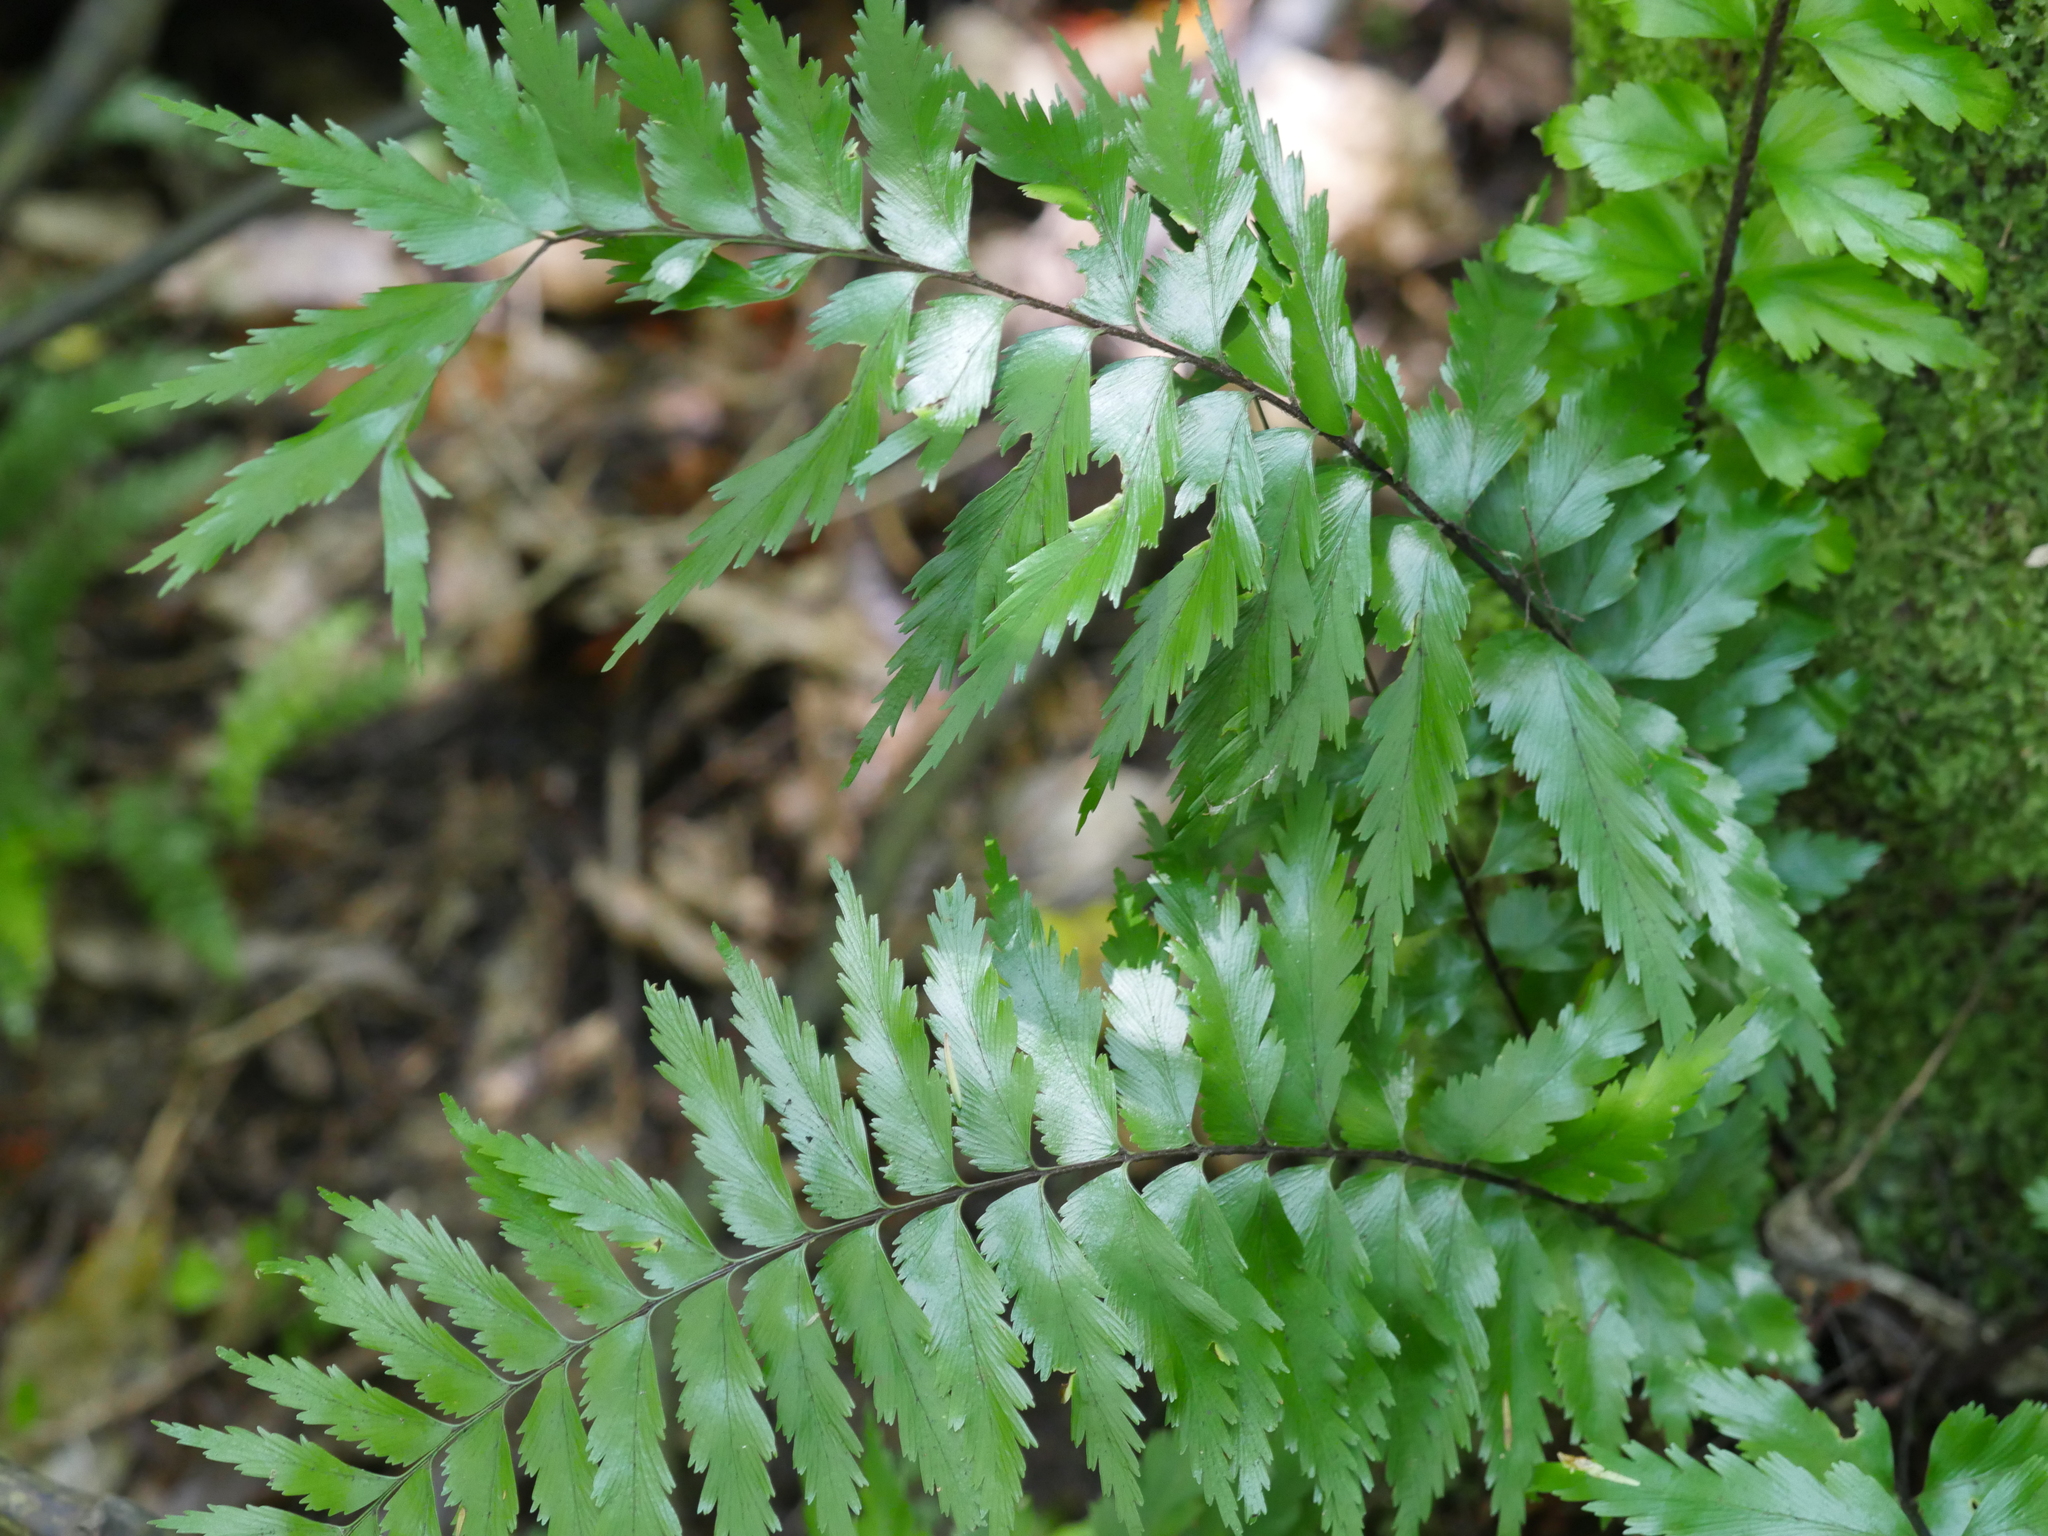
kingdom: Plantae
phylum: Tracheophyta
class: Polypodiopsida
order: Polypodiales
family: Aspleniaceae
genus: Asplenium
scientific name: Asplenium polyodon
